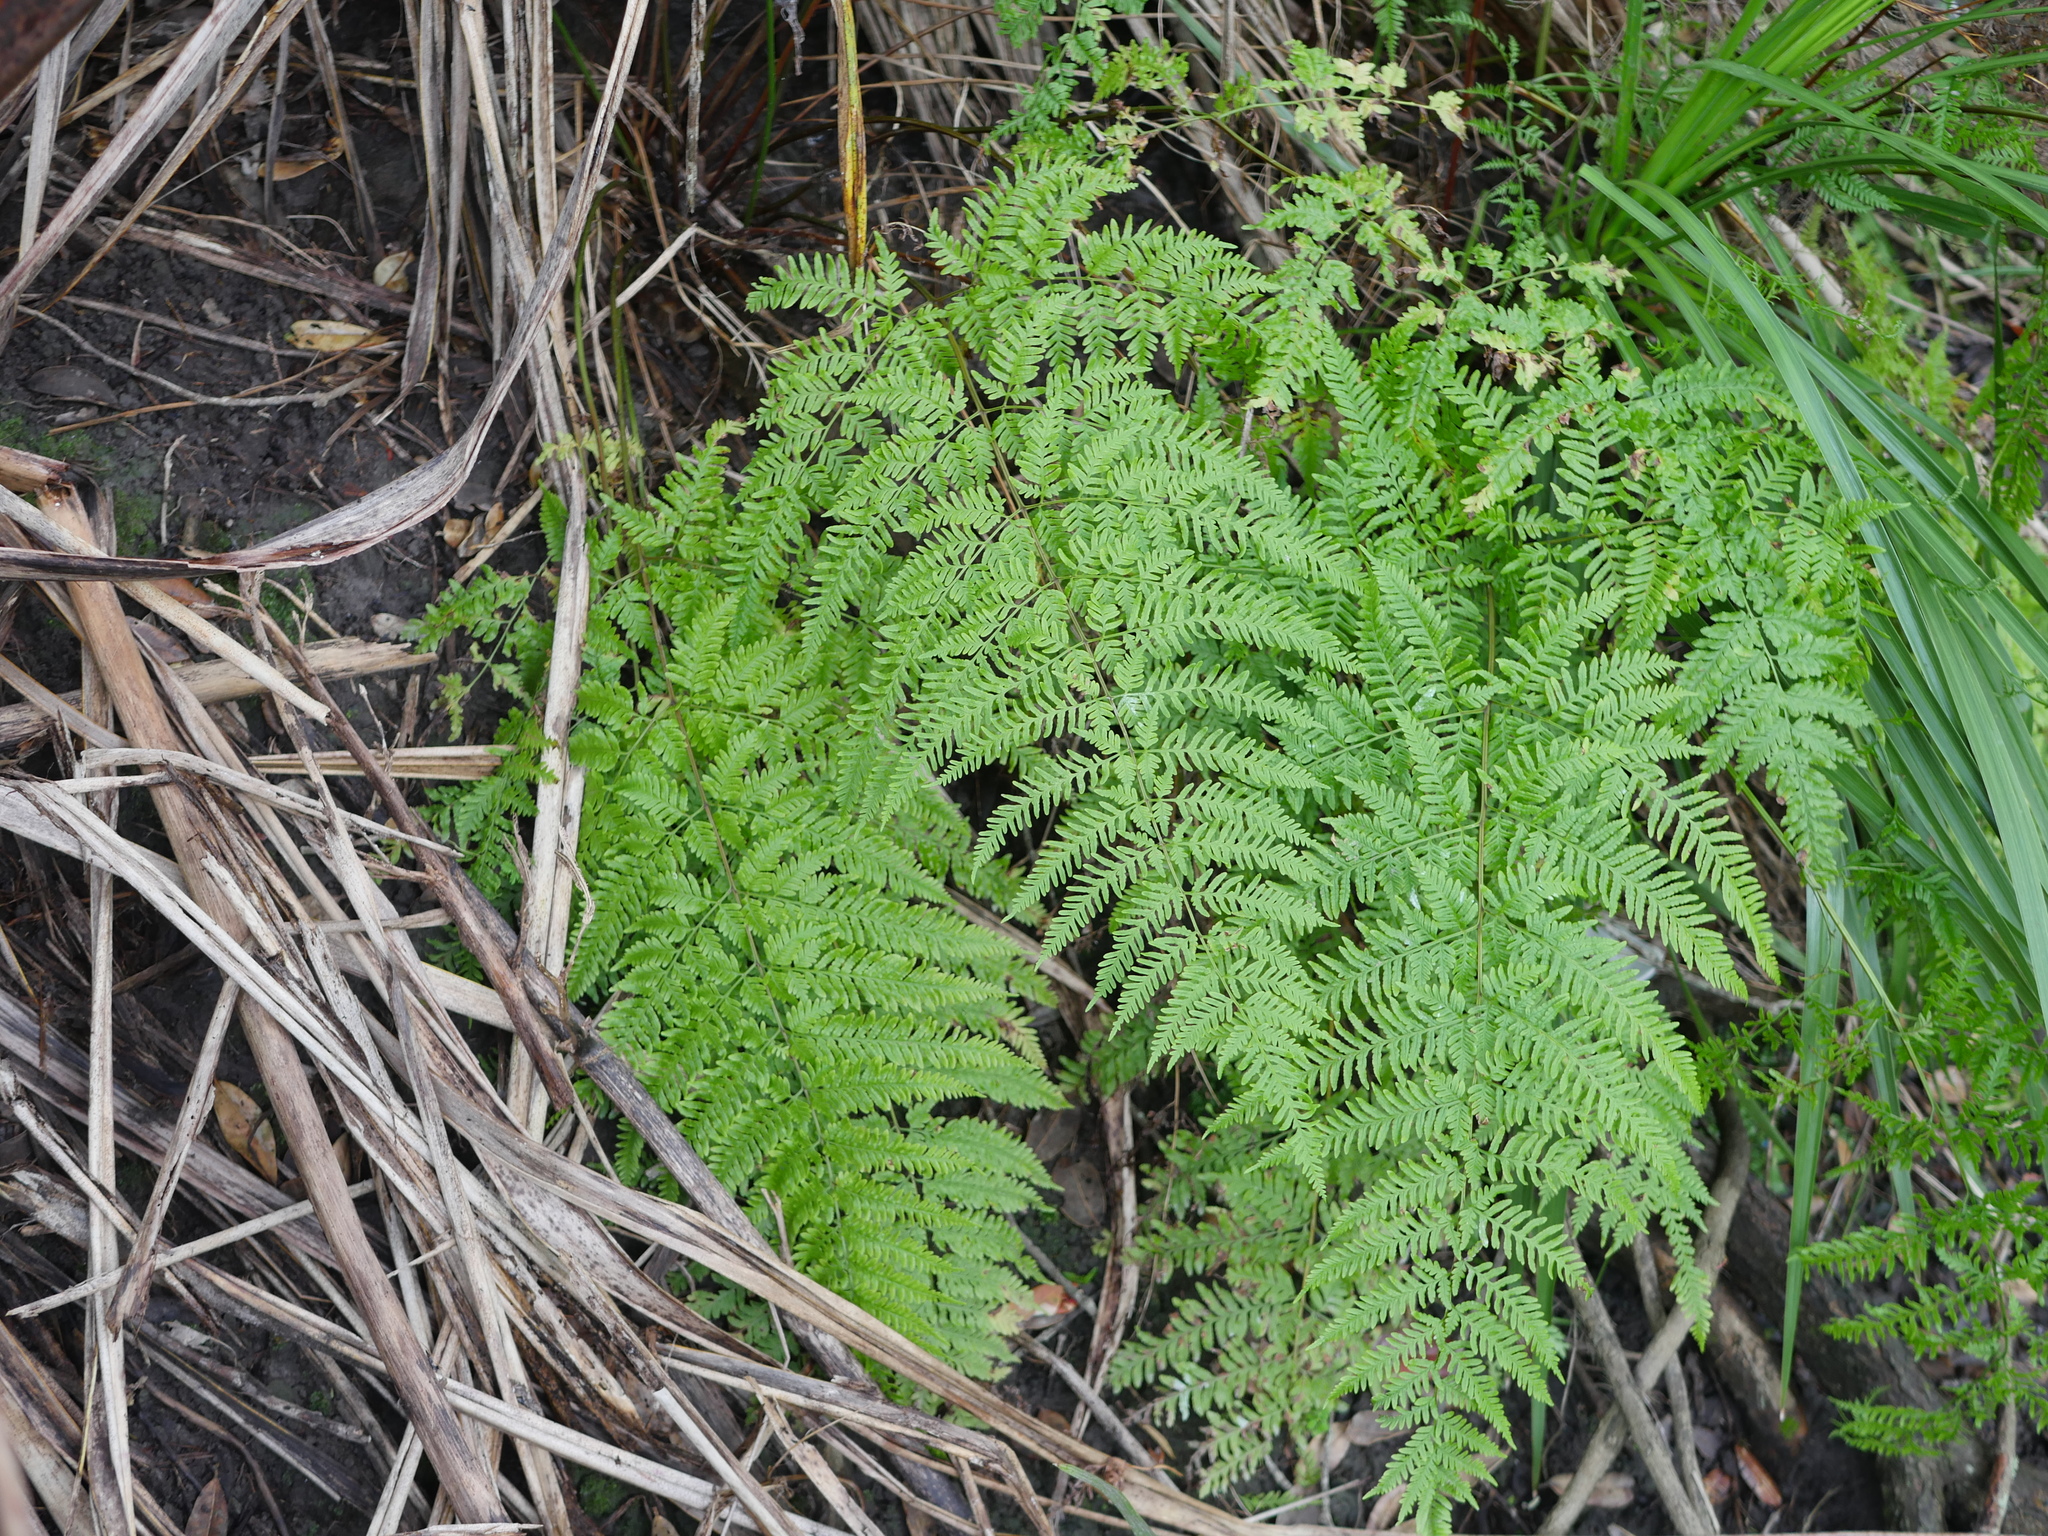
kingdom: Plantae
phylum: Tracheophyta
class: Polypodiopsida
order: Polypodiales
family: Pteridaceae
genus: Pteris
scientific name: Pteris tremula
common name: Australian brake
